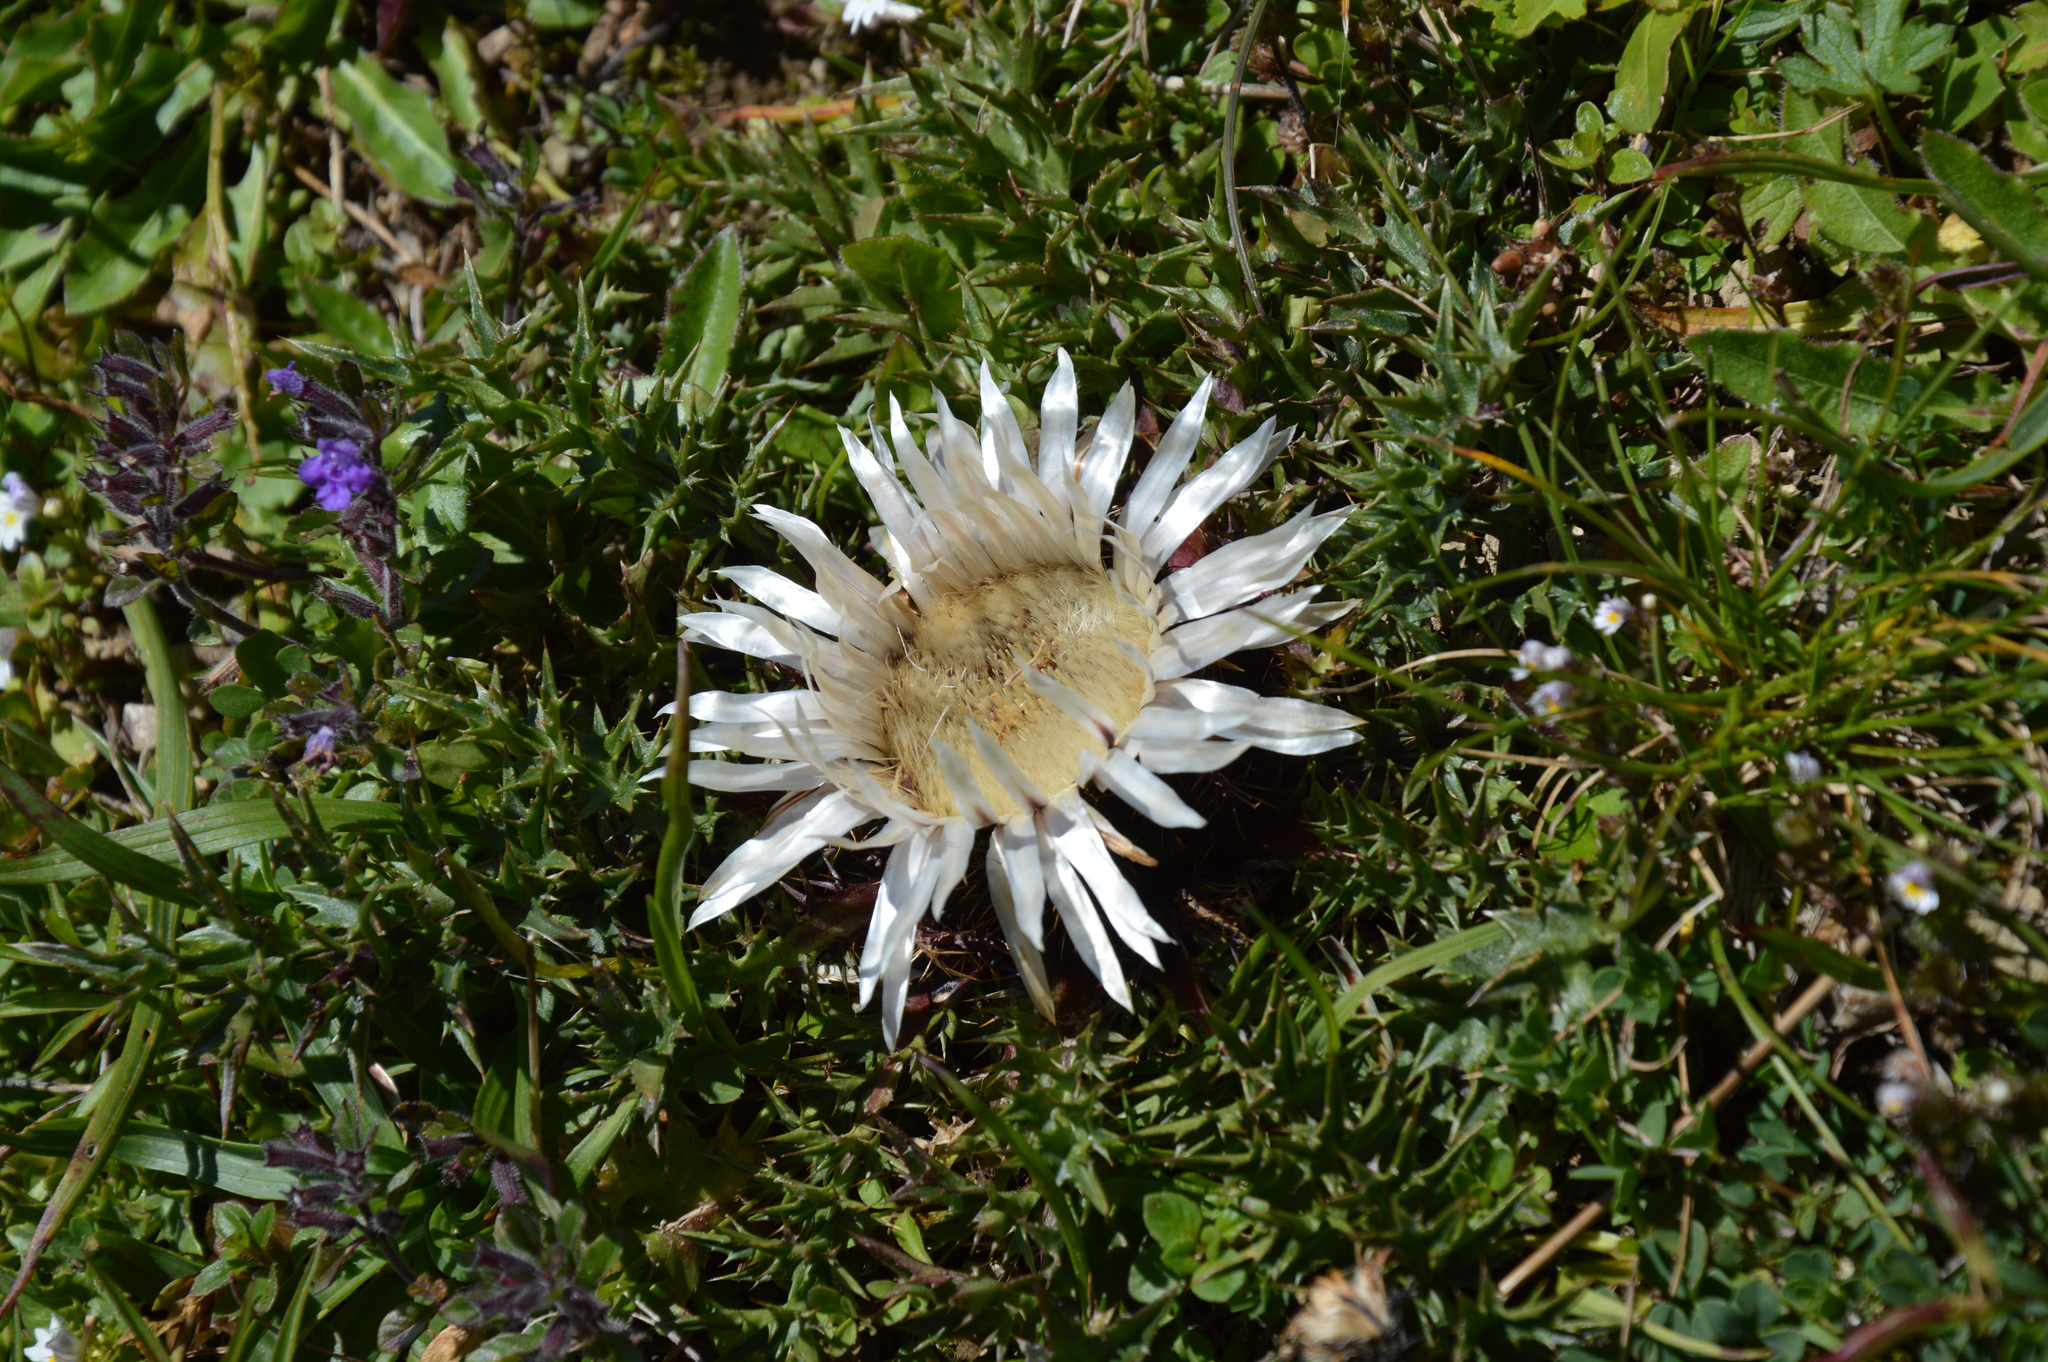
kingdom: Plantae
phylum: Tracheophyta
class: Magnoliopsida
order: Asterales
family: Asteraceae
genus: Carlina
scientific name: Carlina acaulis
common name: Stemless carline thistle
